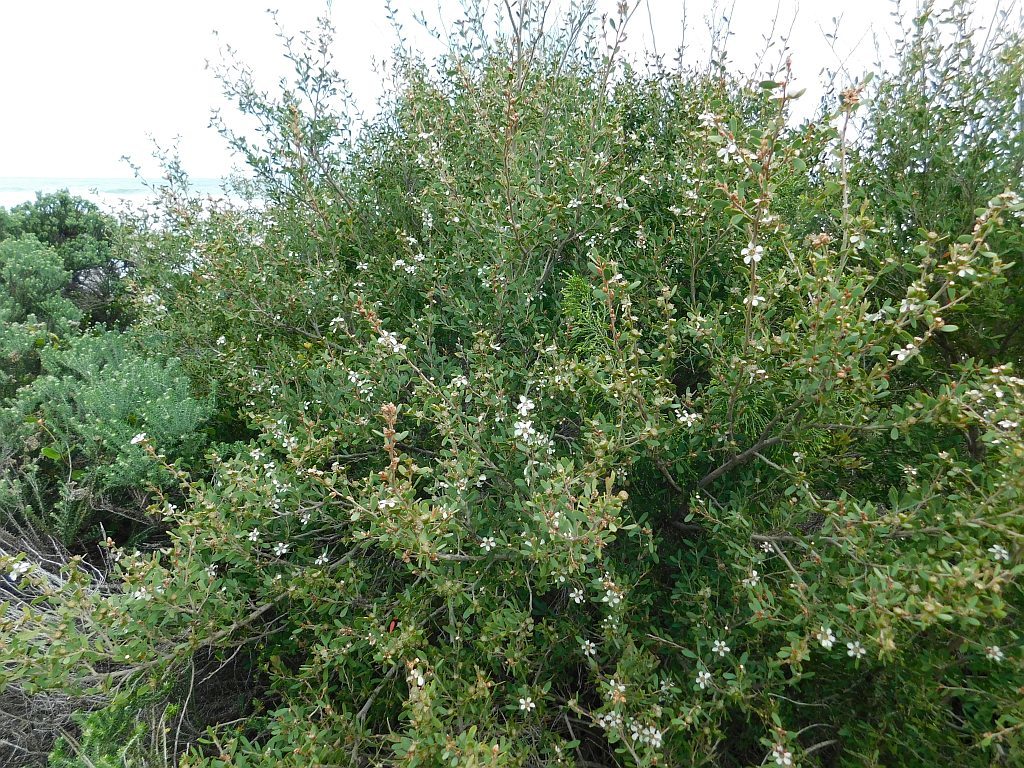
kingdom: Plantae
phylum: Tracheophyta
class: Magnoliopsida
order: Myrtales
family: Myrtaceae
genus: Leptospermum
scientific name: Leptospermum laevigatum
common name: Australian teatree
